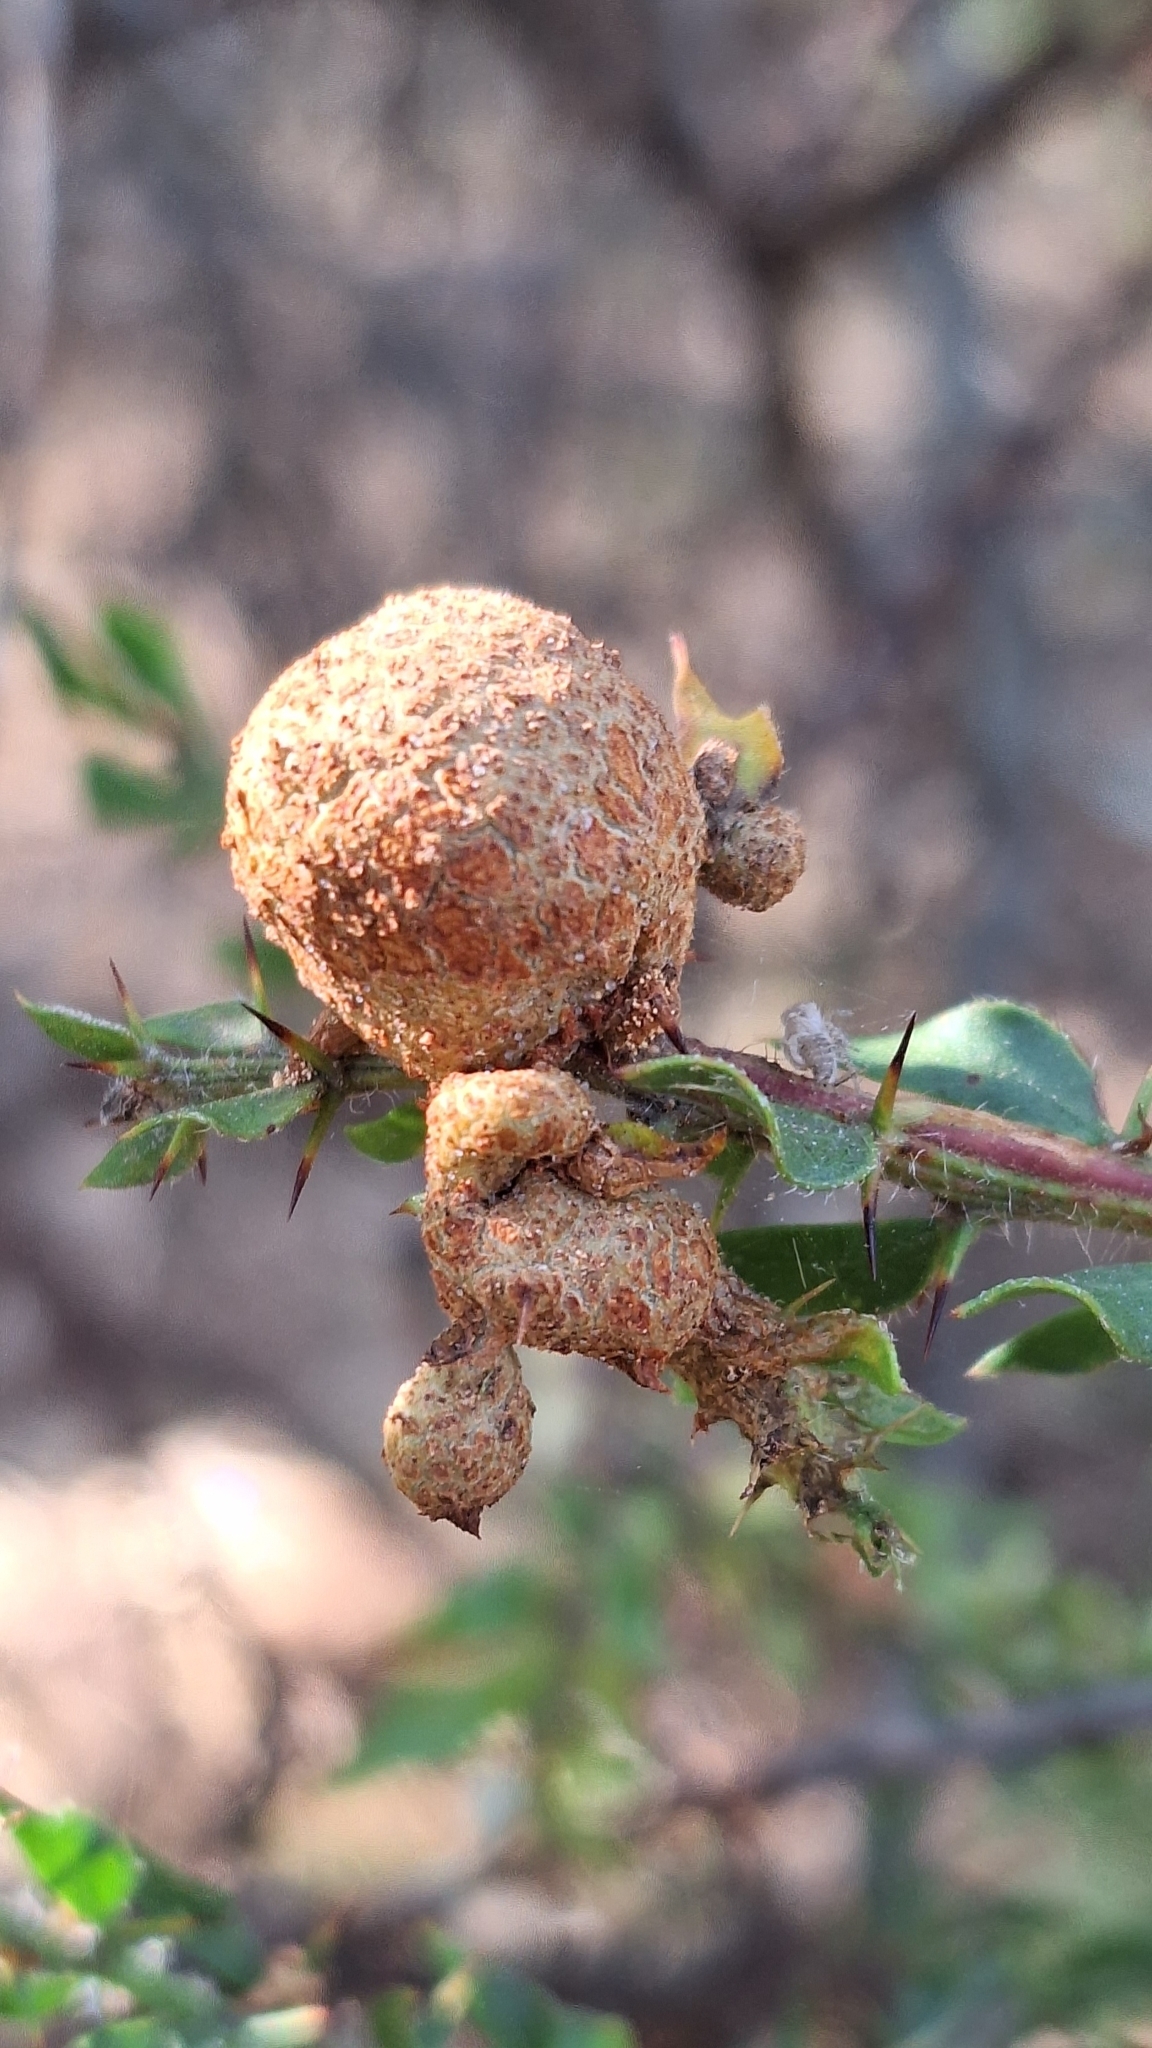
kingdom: Fungi
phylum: Basidiomycota
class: Pucciniomycetes
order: Pucciniales
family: Uromycladiaceae
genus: Uromycladium
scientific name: Uromycladium paradoxae
